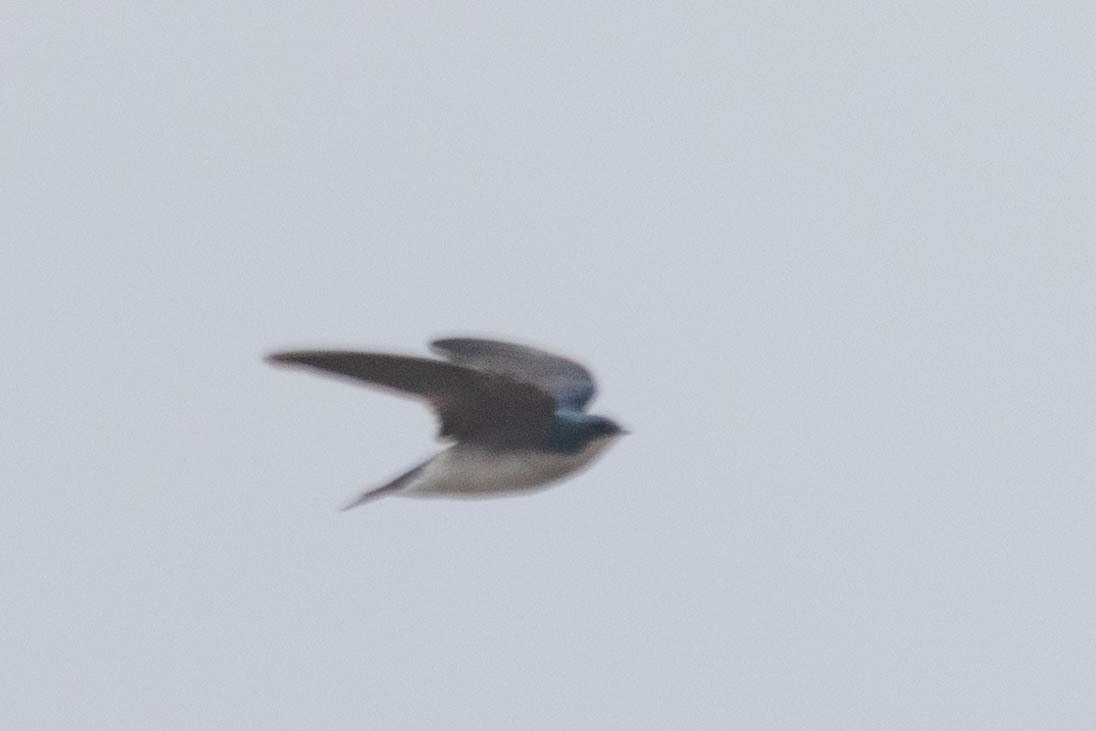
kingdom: Animalia
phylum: Chordata
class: Aves
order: Passeriformes
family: Hirundinidae
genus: Tachycineta
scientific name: Tachycineta bicolor
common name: Tree swallow
